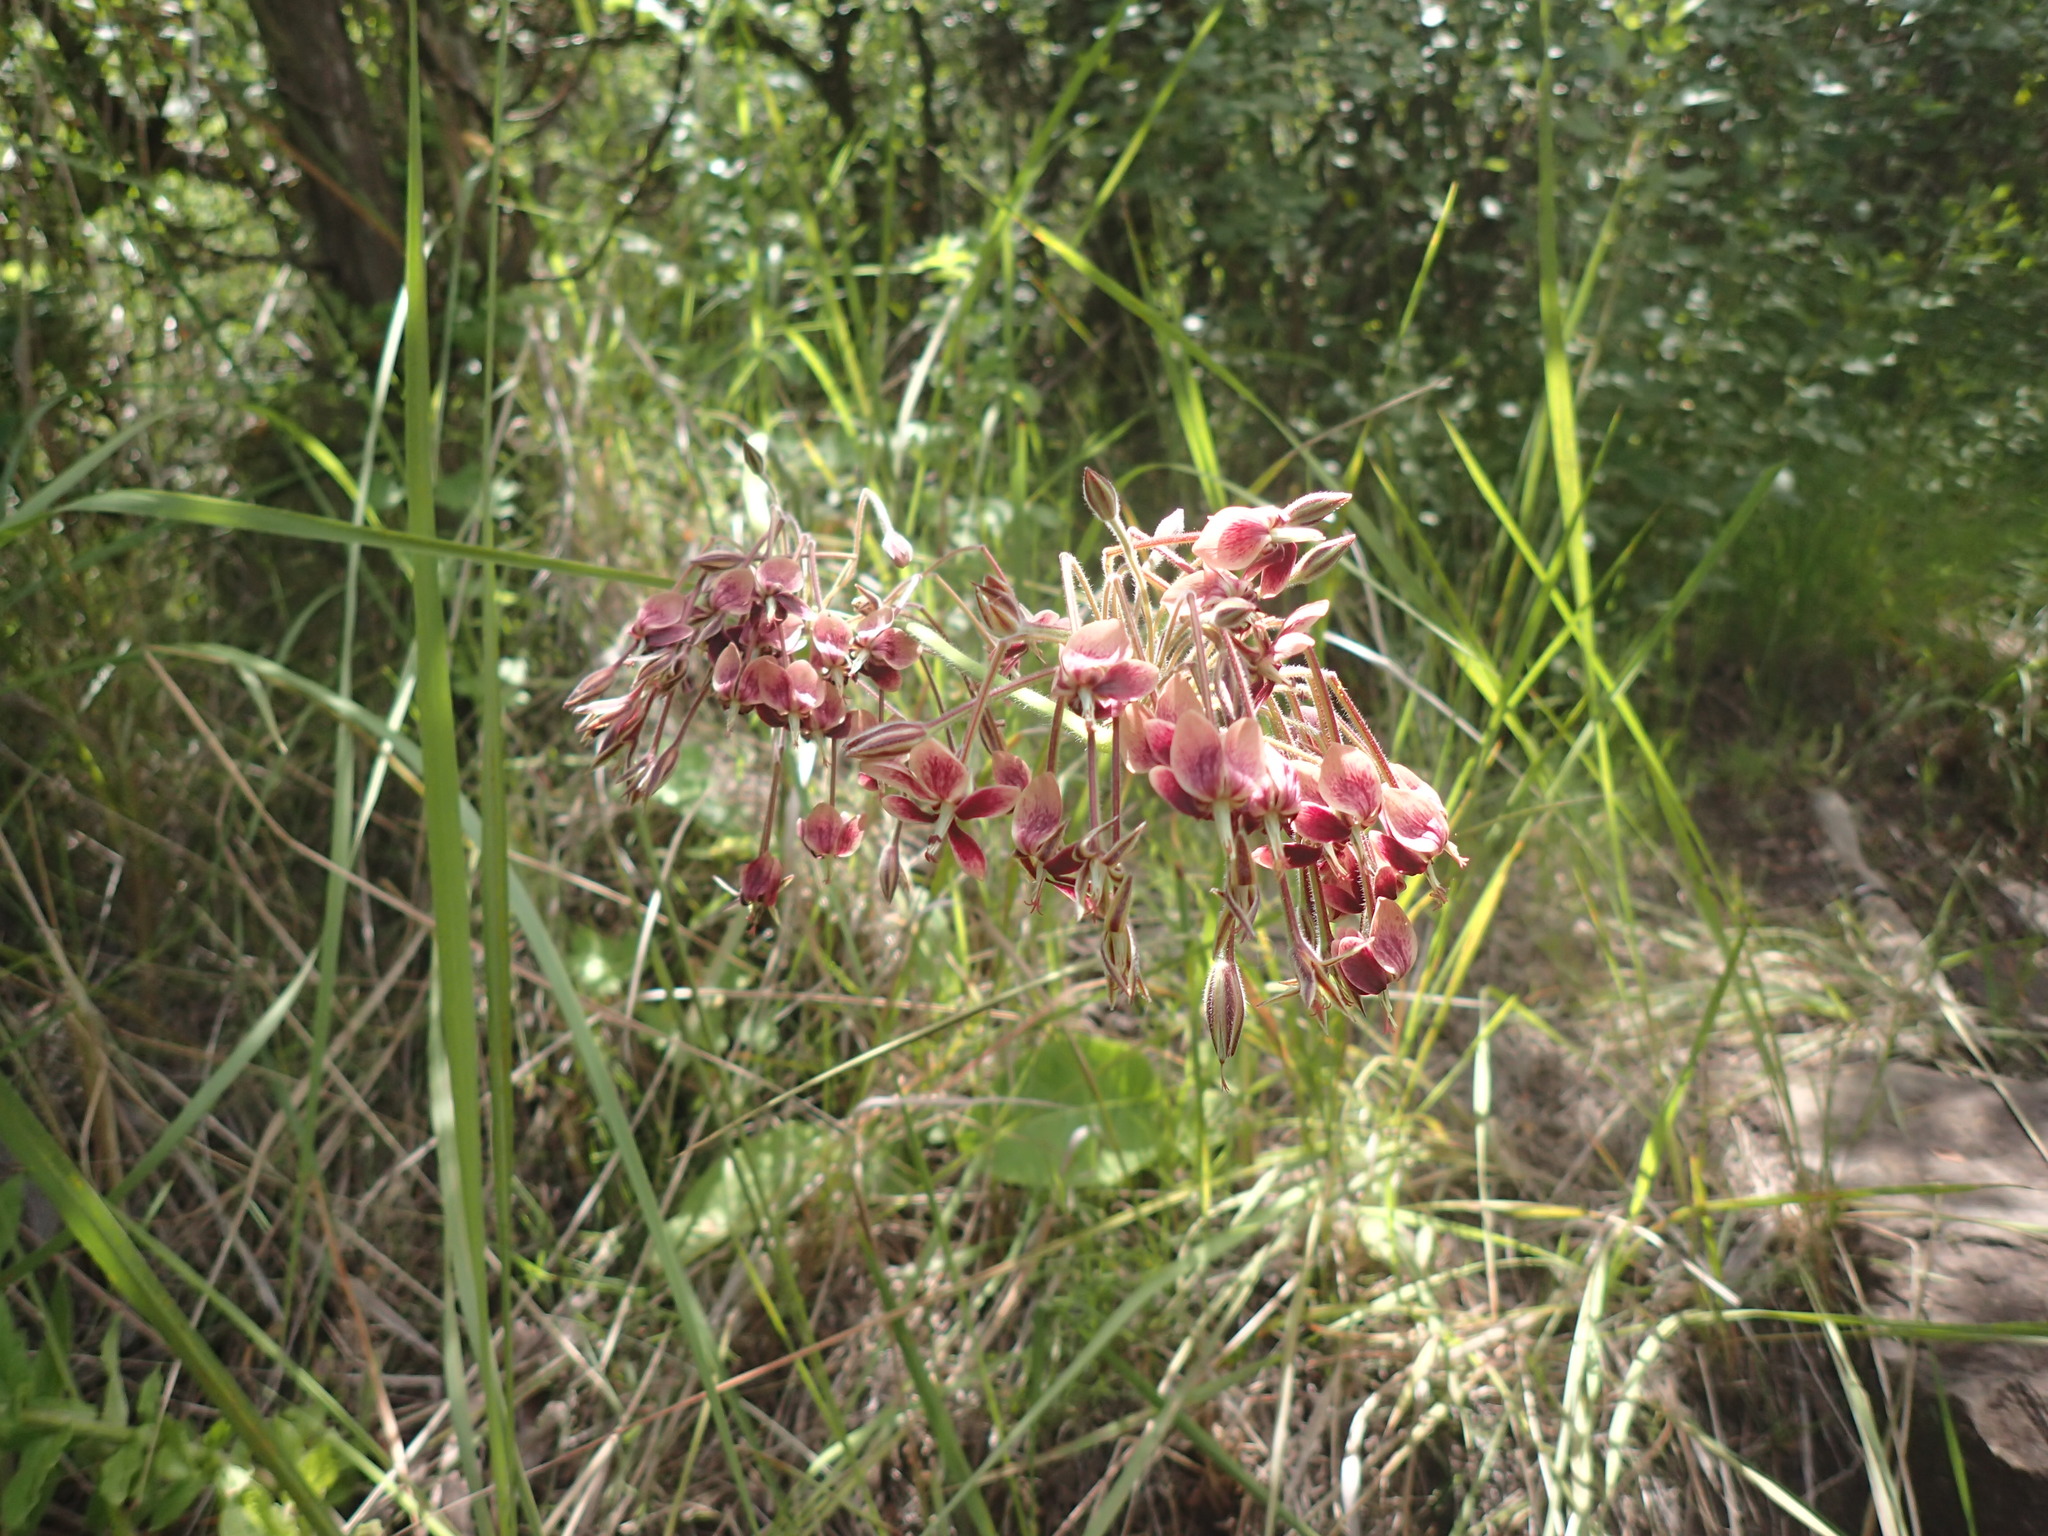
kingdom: Plantae
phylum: Tracheophyta
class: Magnoliopsida
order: Geraniales
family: Geraniaceae
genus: Pelargonium
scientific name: Pelargonium luridum
